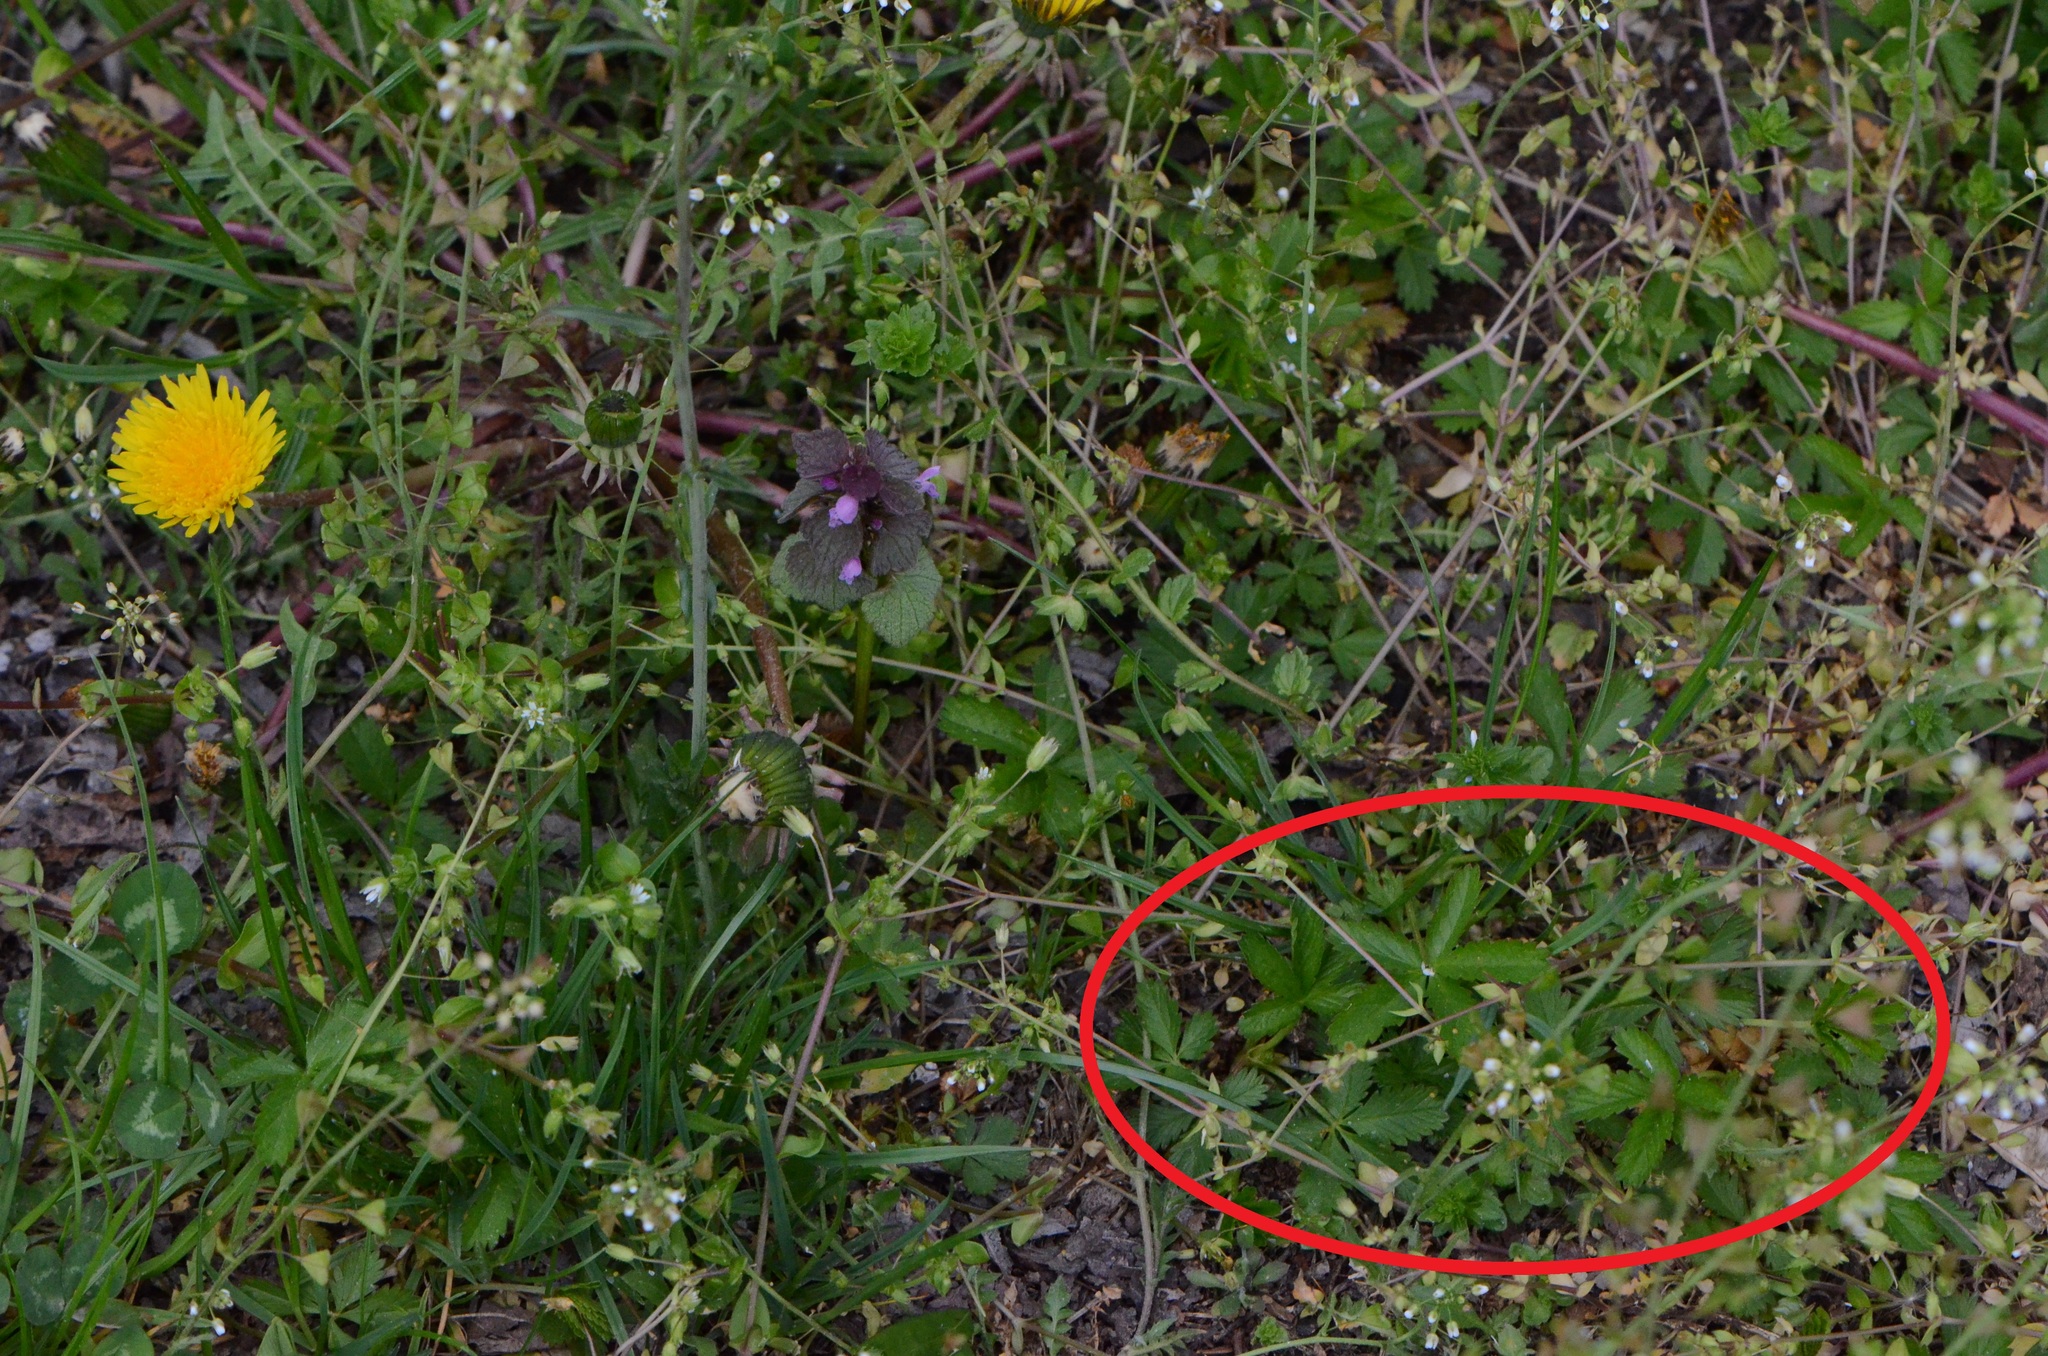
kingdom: Plantae
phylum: Tracheophyta
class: Magnoliopsida
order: Rosales
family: Rosaceae
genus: Potentilla
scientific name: Potentilla reptans
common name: Creeping cinquefoil
